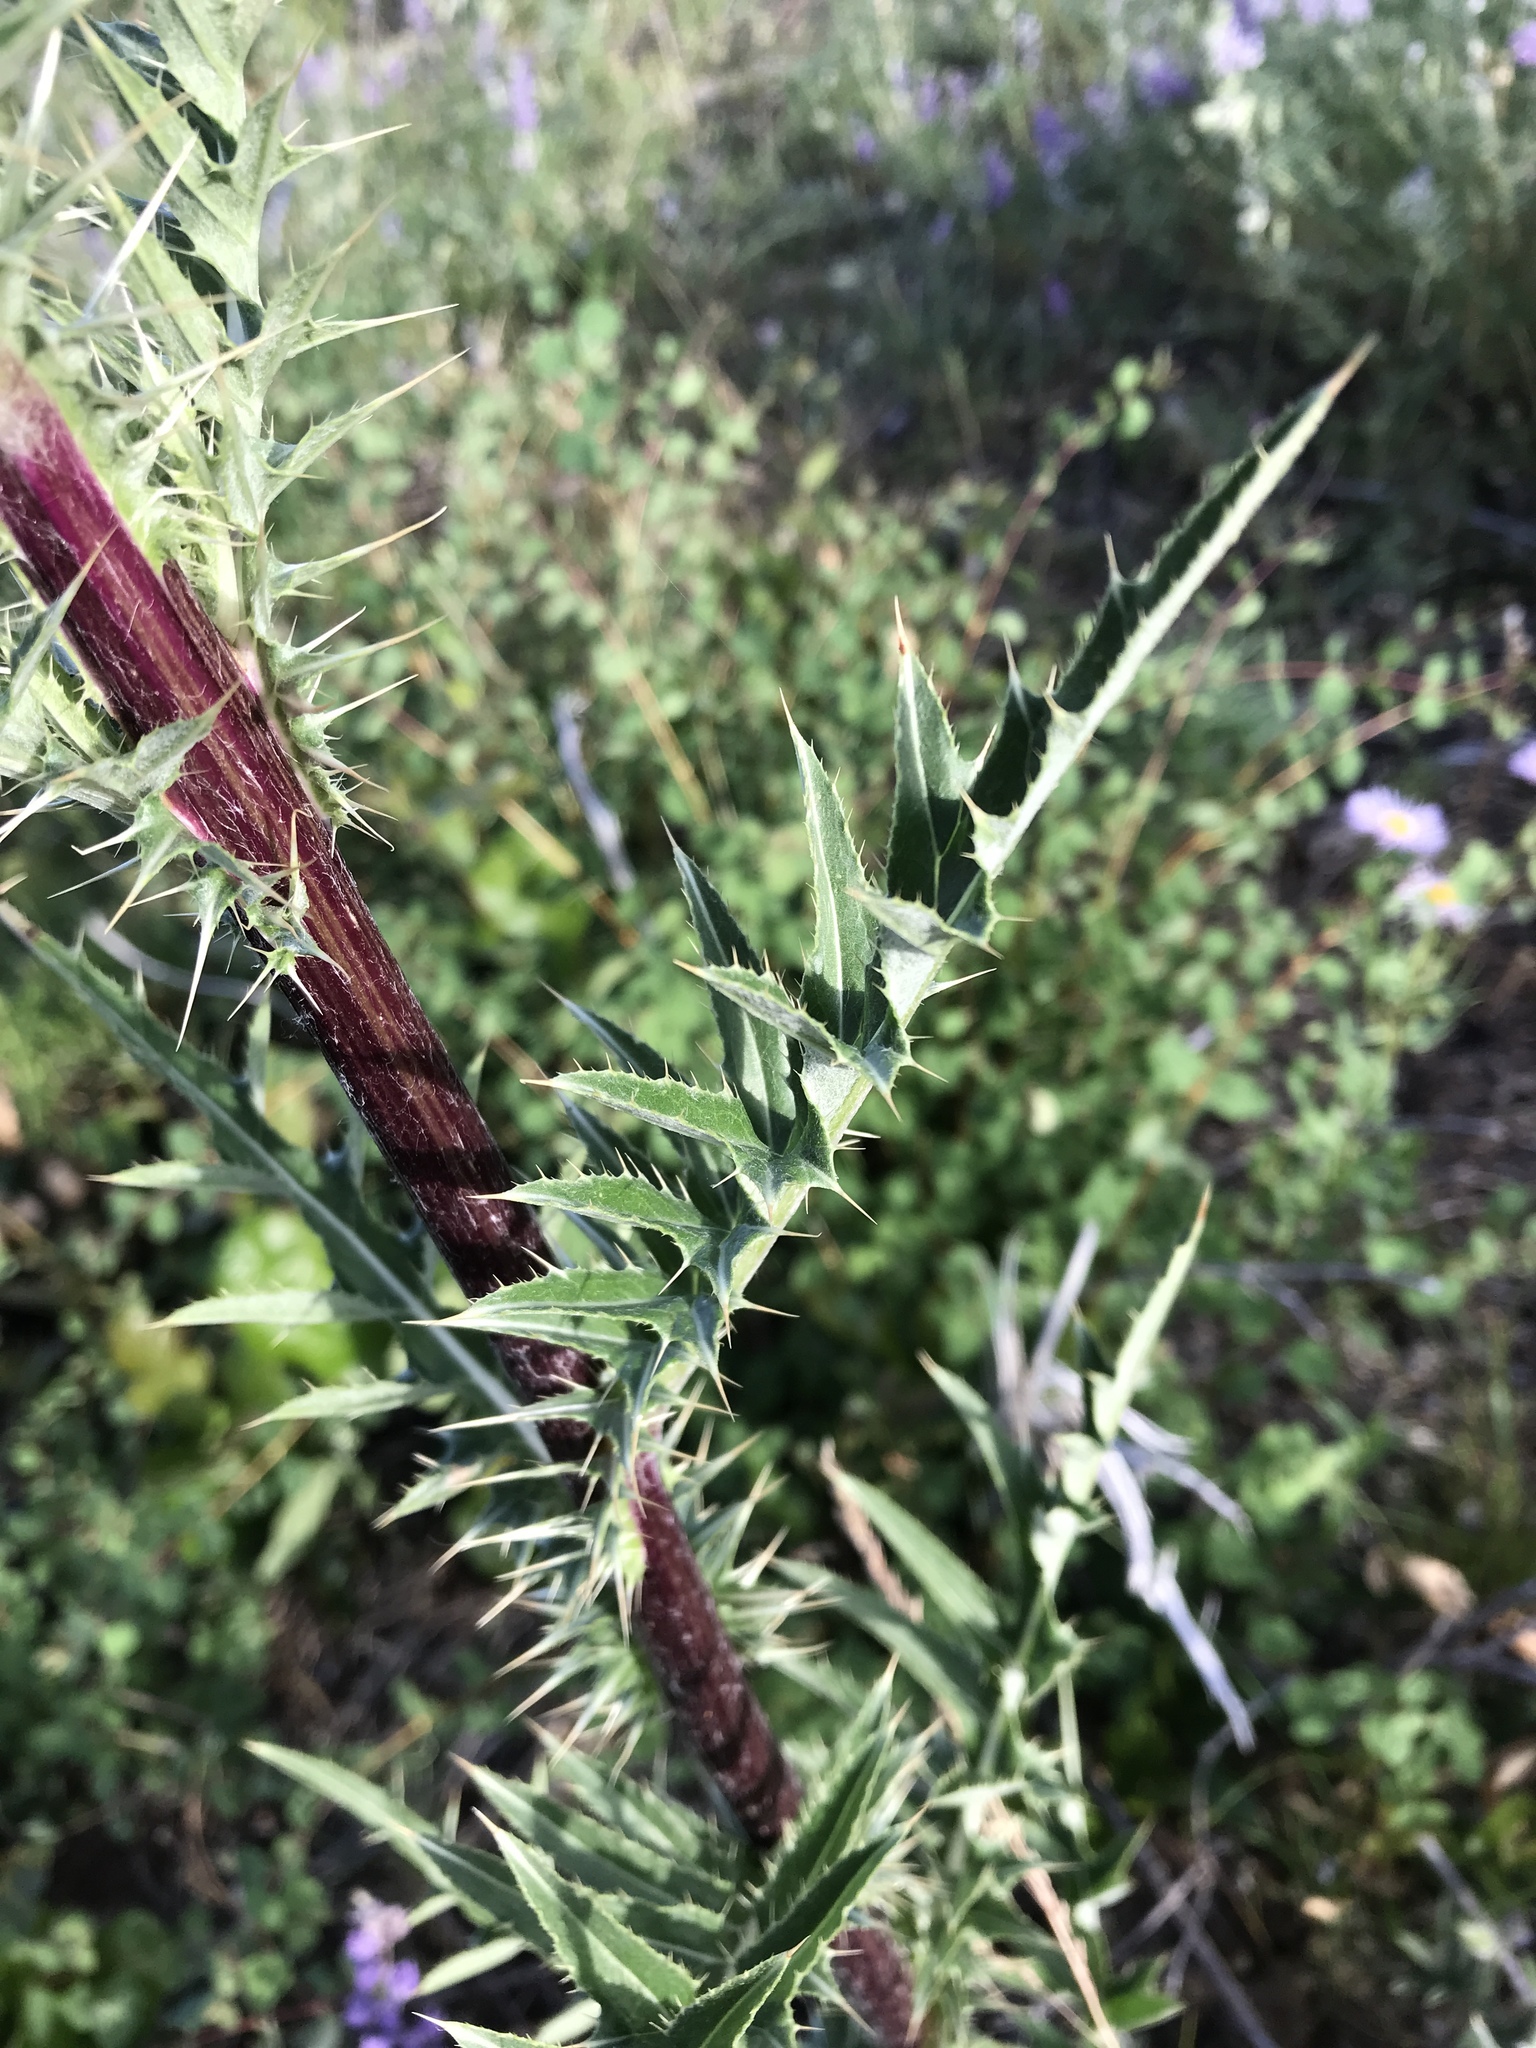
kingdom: Plantae
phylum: Tracheophyta
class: Magnoliopsida
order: Asterales
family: Asteraceae
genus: Cirsium
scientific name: Cirsium
